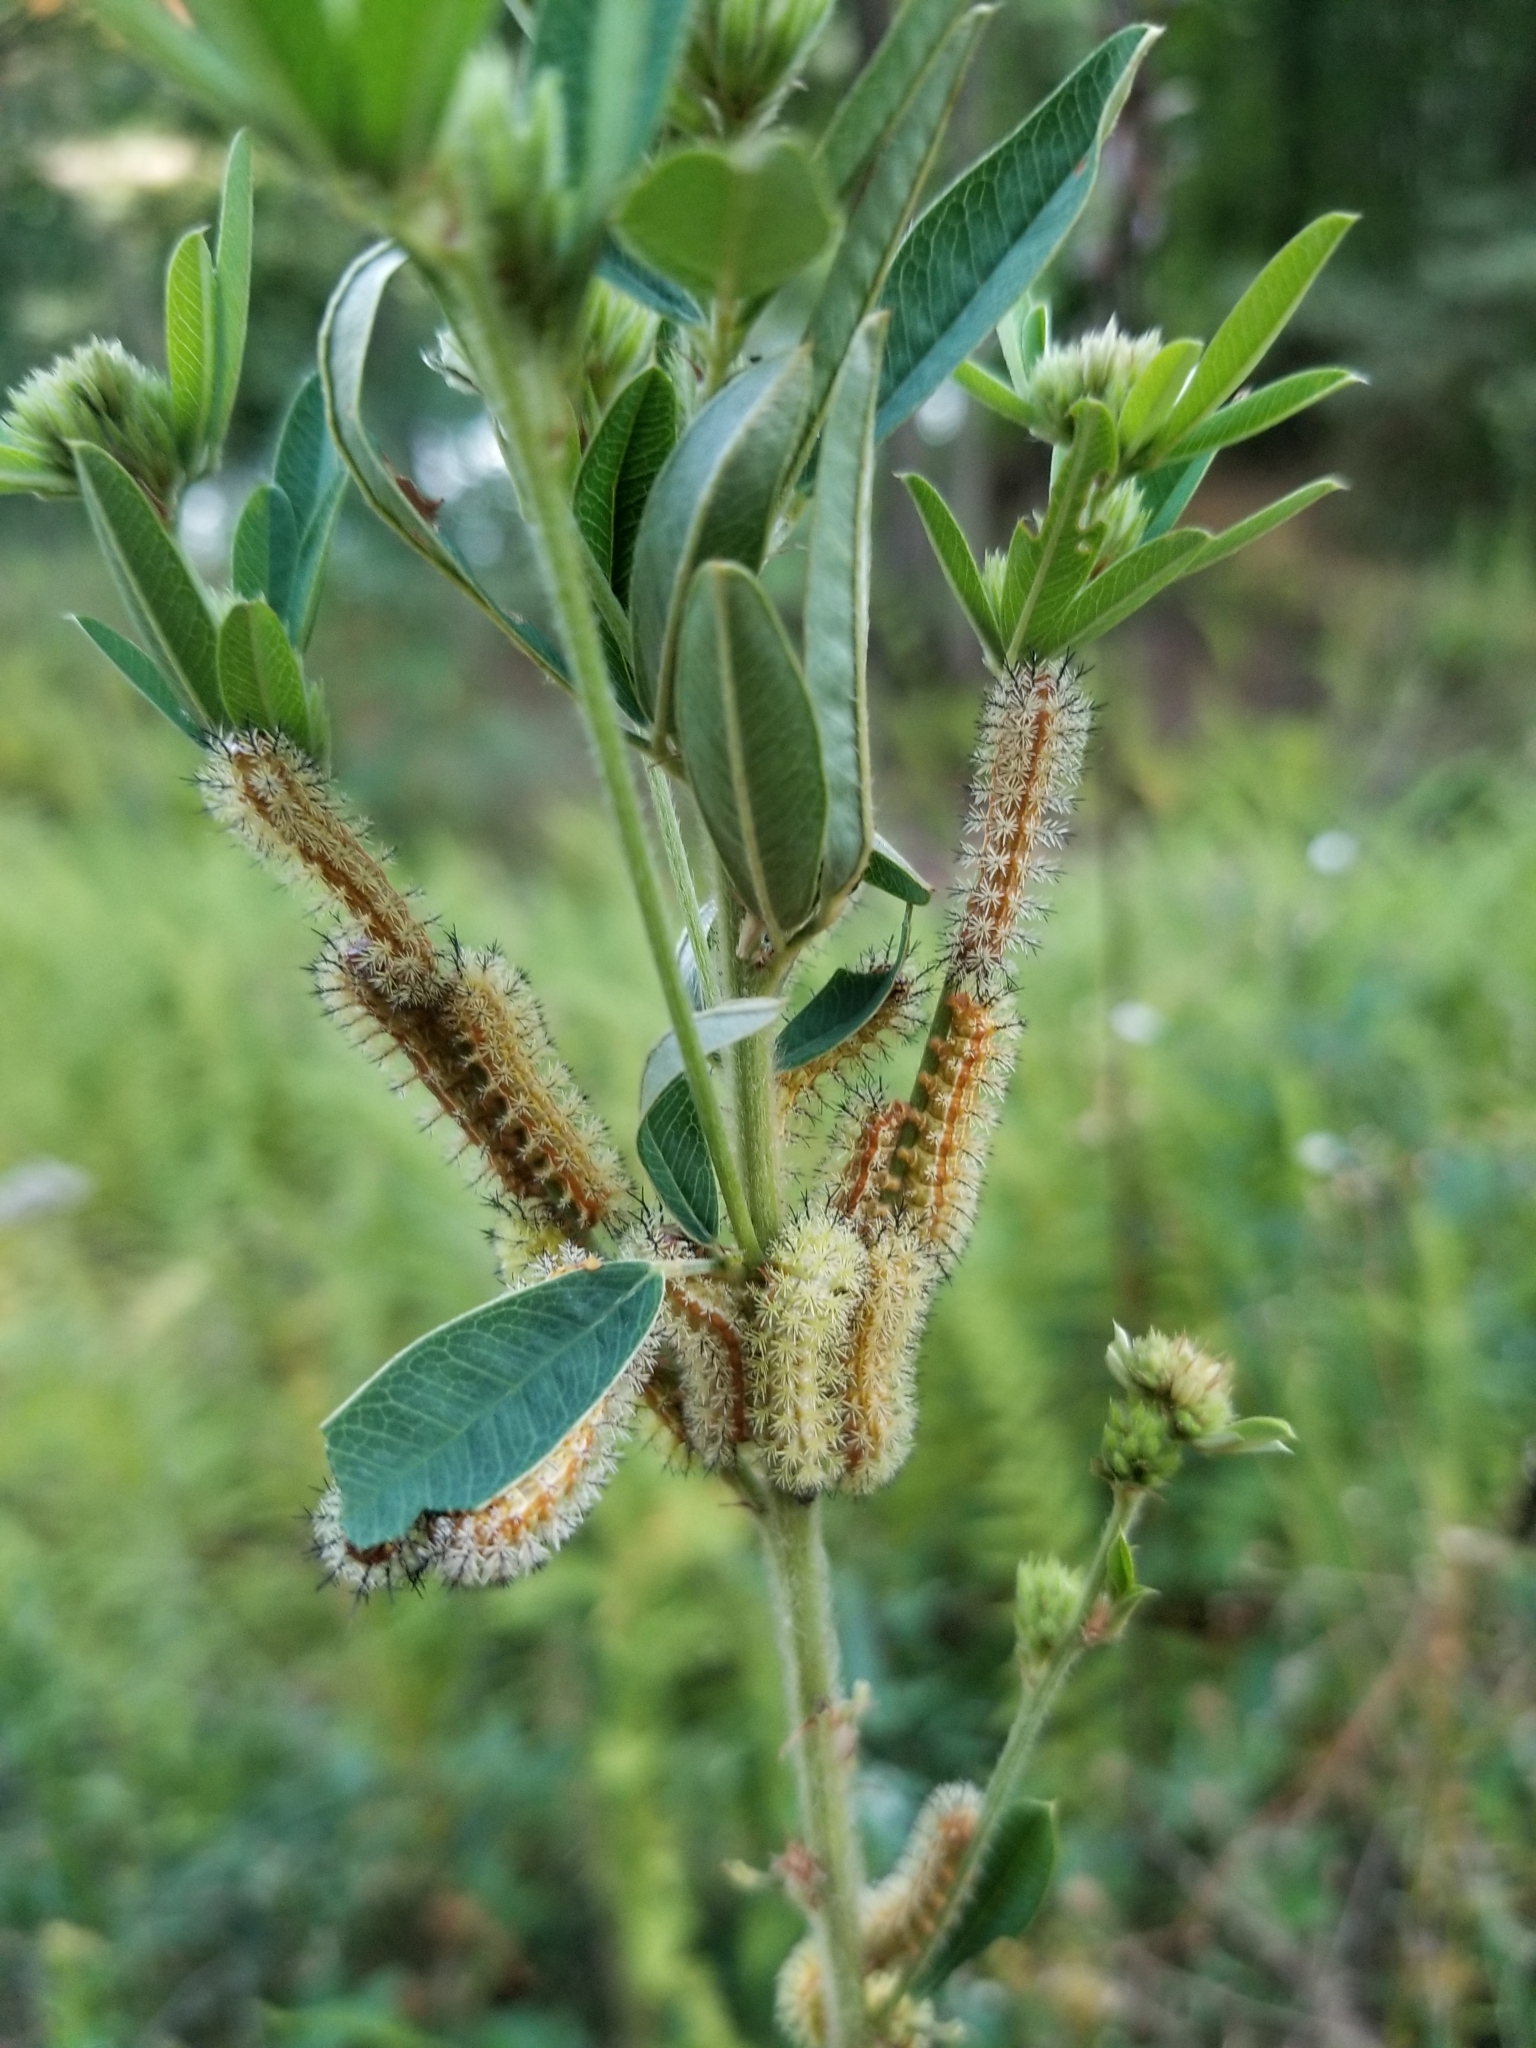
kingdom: Animalia
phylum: Arthropoda
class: Insecta
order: Lepidoptera
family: Saturniidae
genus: Automeris
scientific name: Automeris io
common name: Io moth
